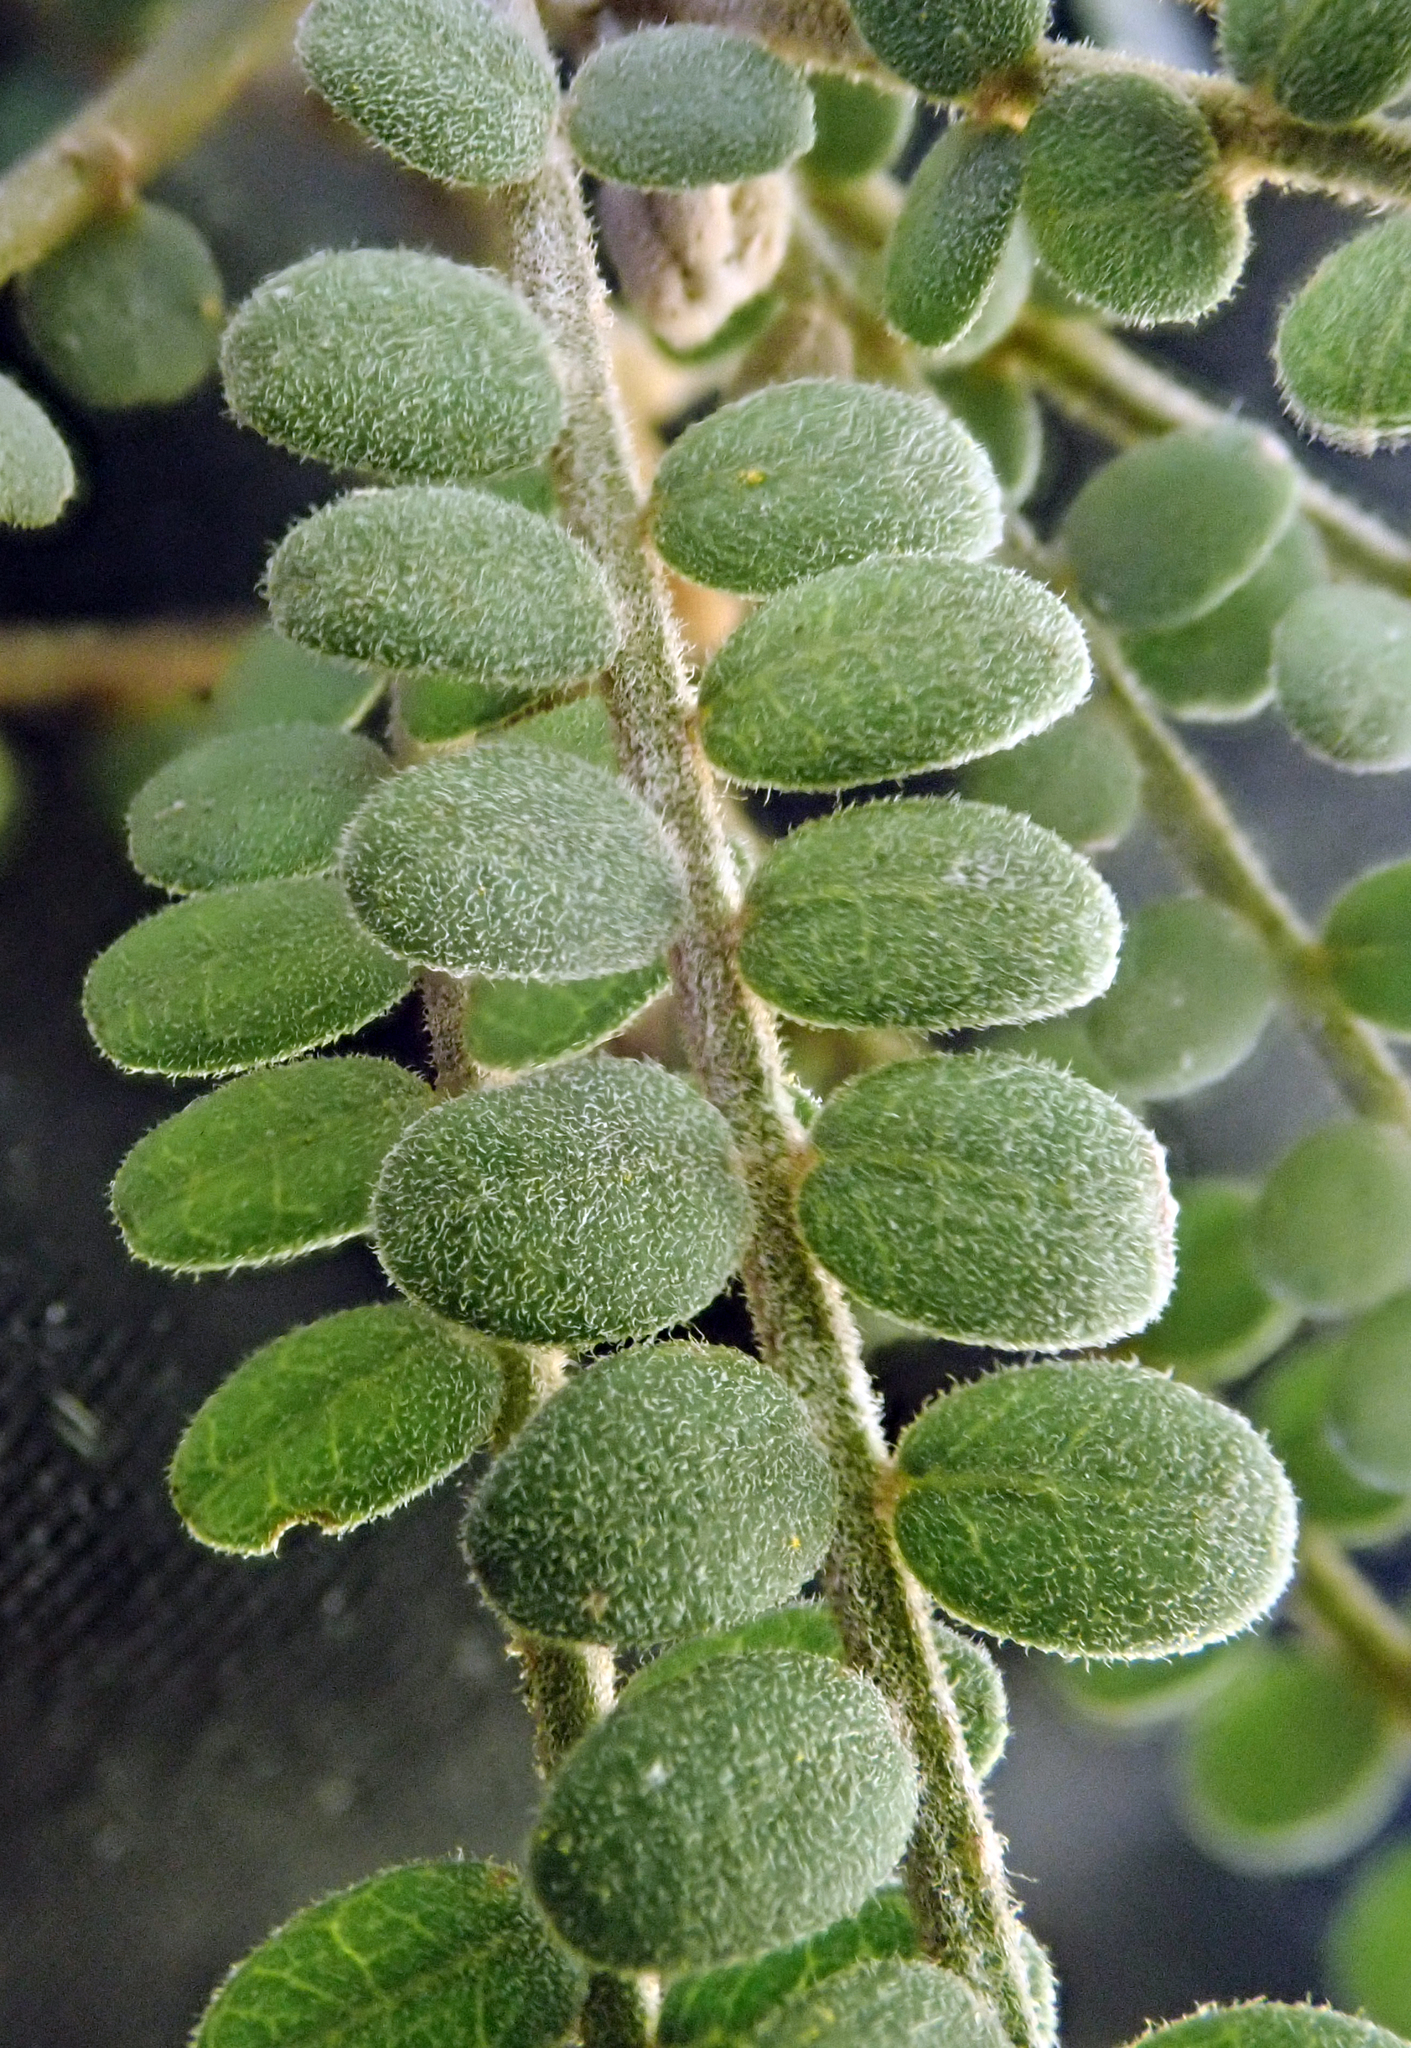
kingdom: Plantae
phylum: Tracheophyta
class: Magnoliopsida
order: Fabales
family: Fabaceae
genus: Sophora
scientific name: Sophora godleyi
